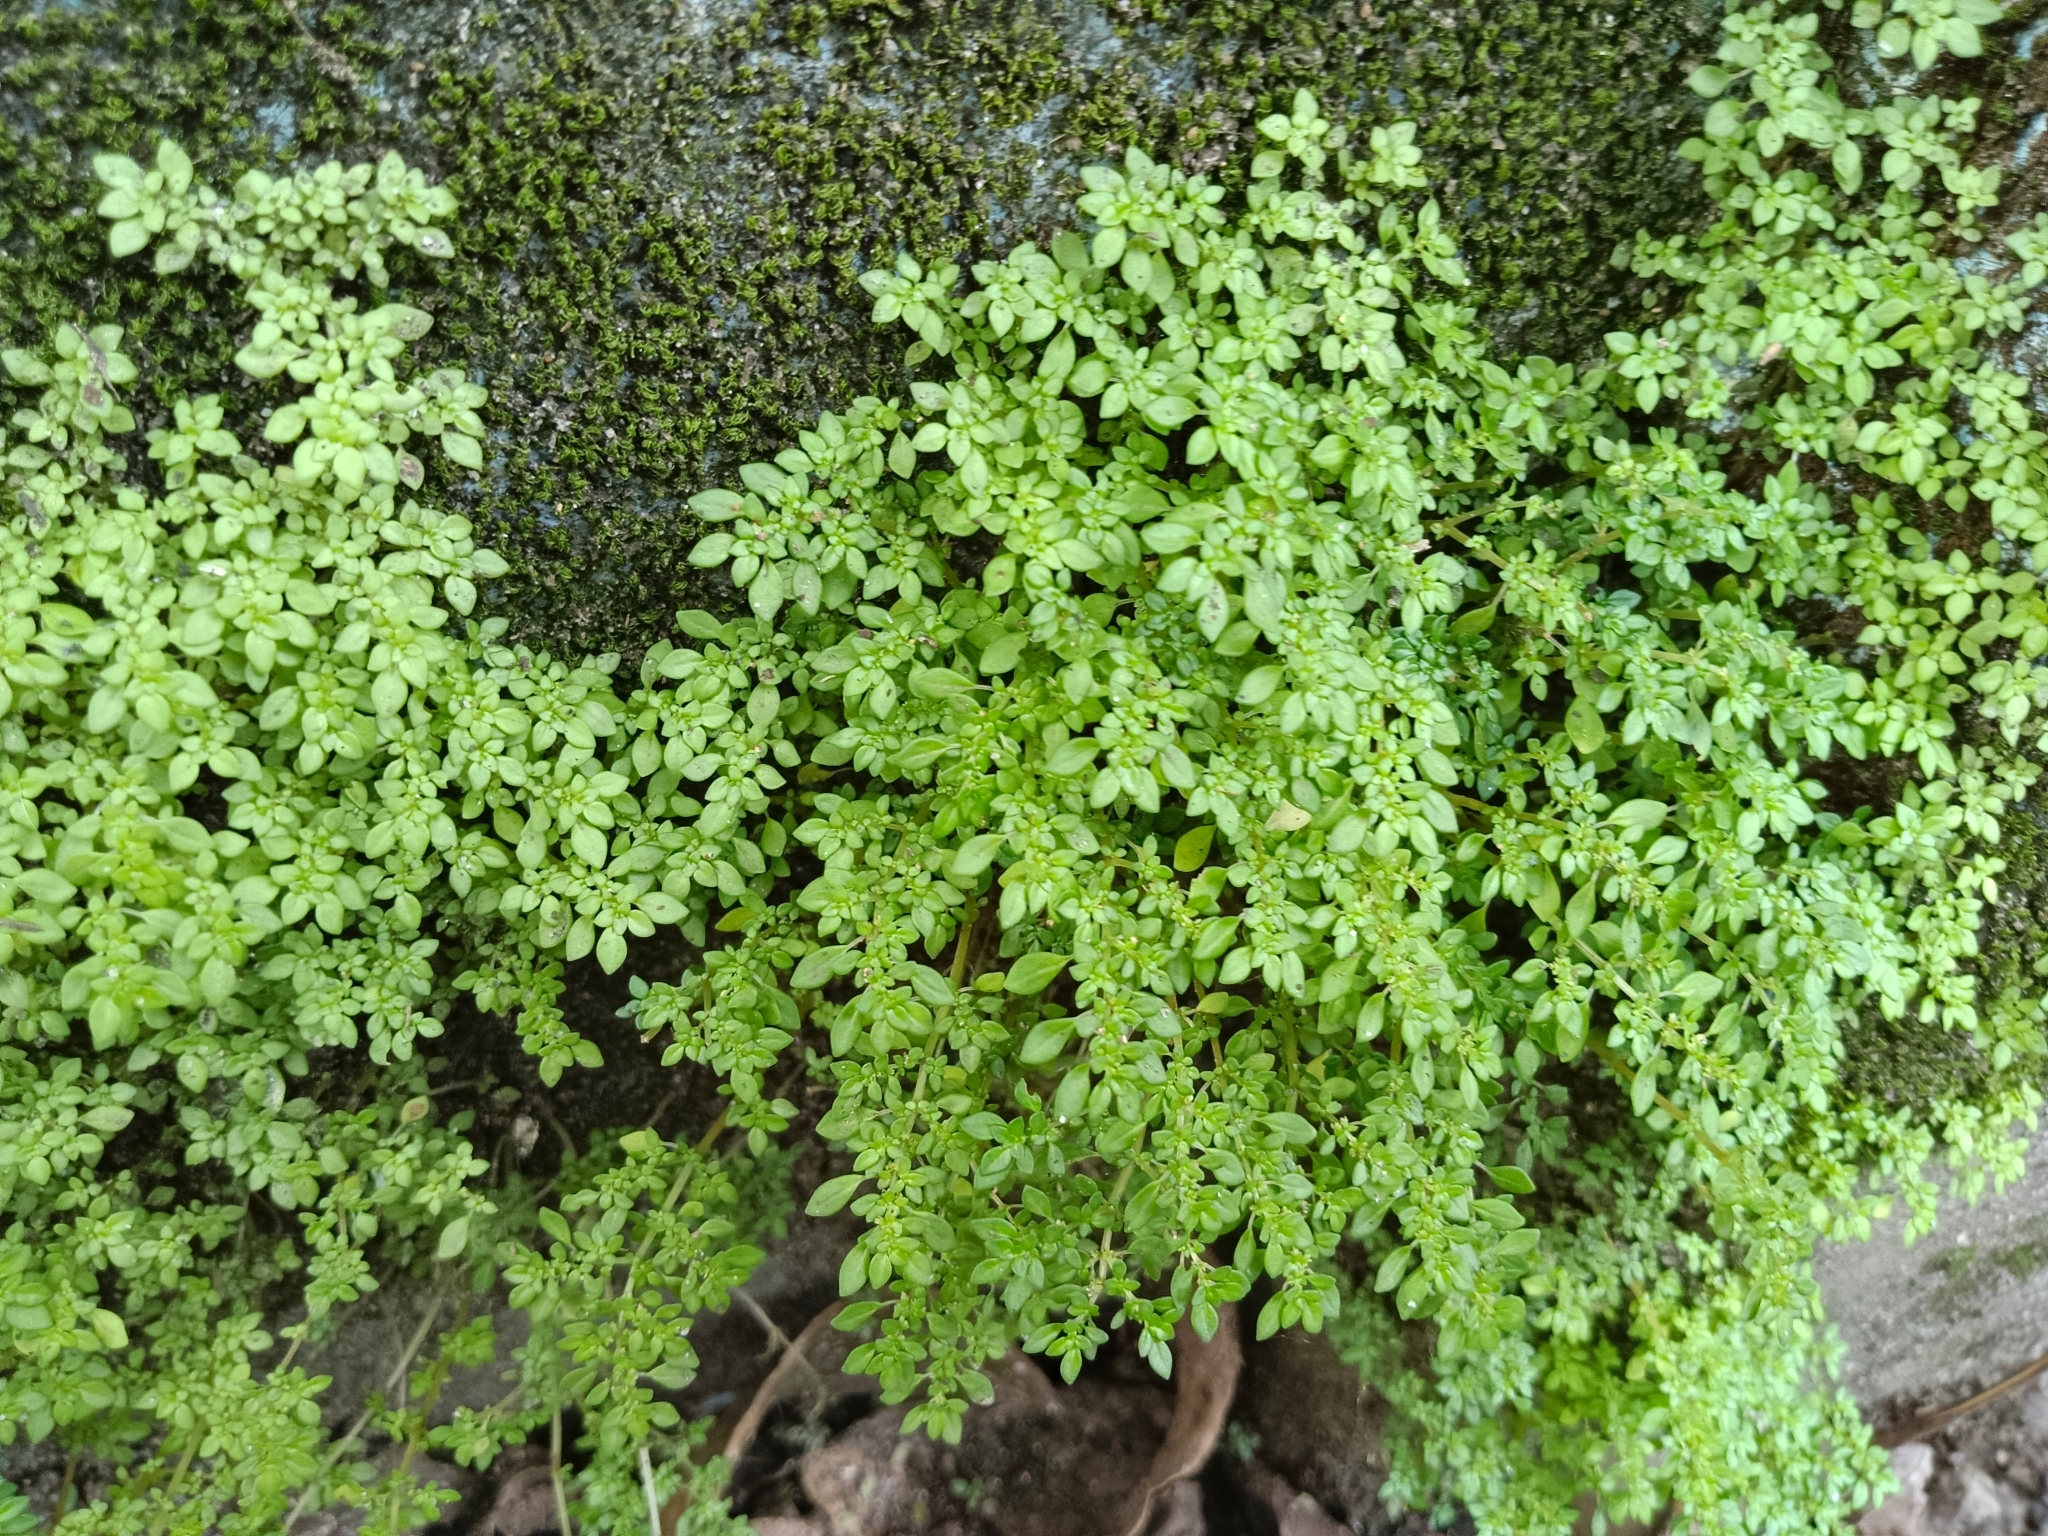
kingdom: Plantae
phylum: Tracheophyta
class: Magnoliopsida
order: Rosales
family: Urticaceae
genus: Pilea
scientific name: Pilea microphylla
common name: Artillery-plant
